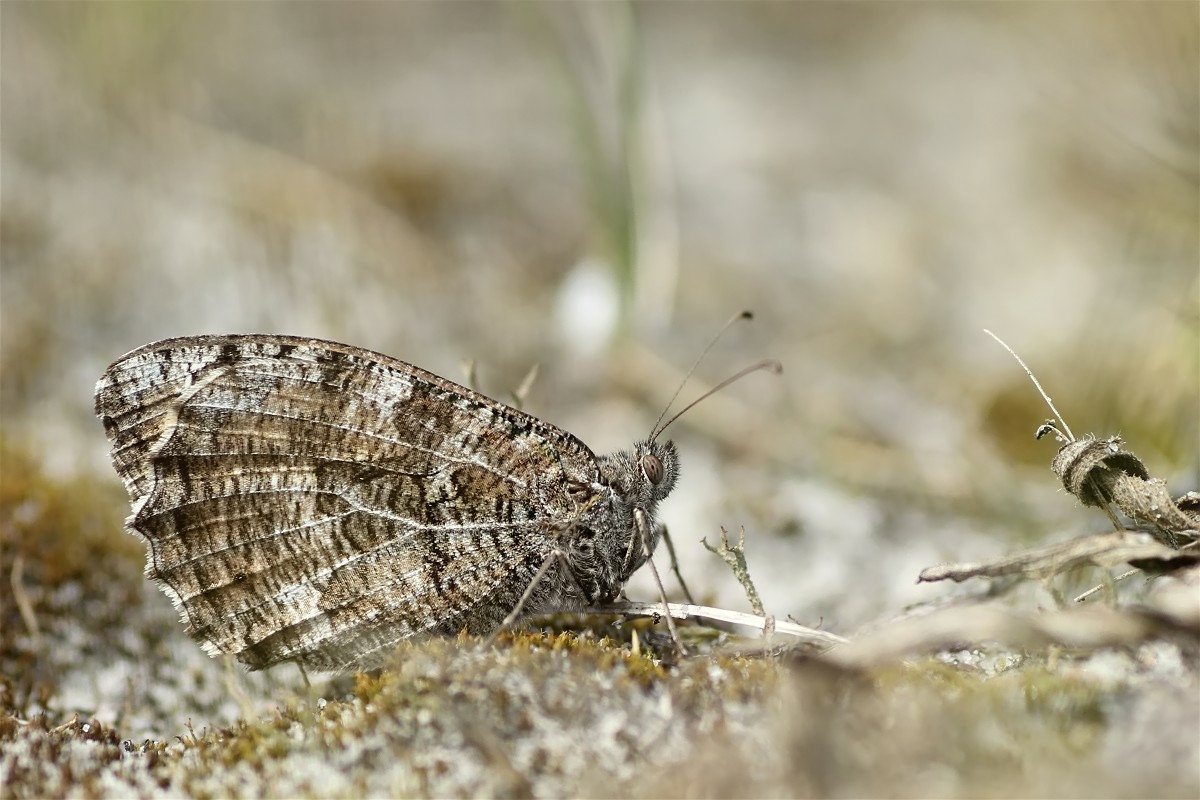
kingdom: Animalia
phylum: Arthropoda
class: Insecta
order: Lepidoptera
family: Nymphalidae
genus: Hipparchia
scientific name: Hipparchia semele
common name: Grayling
